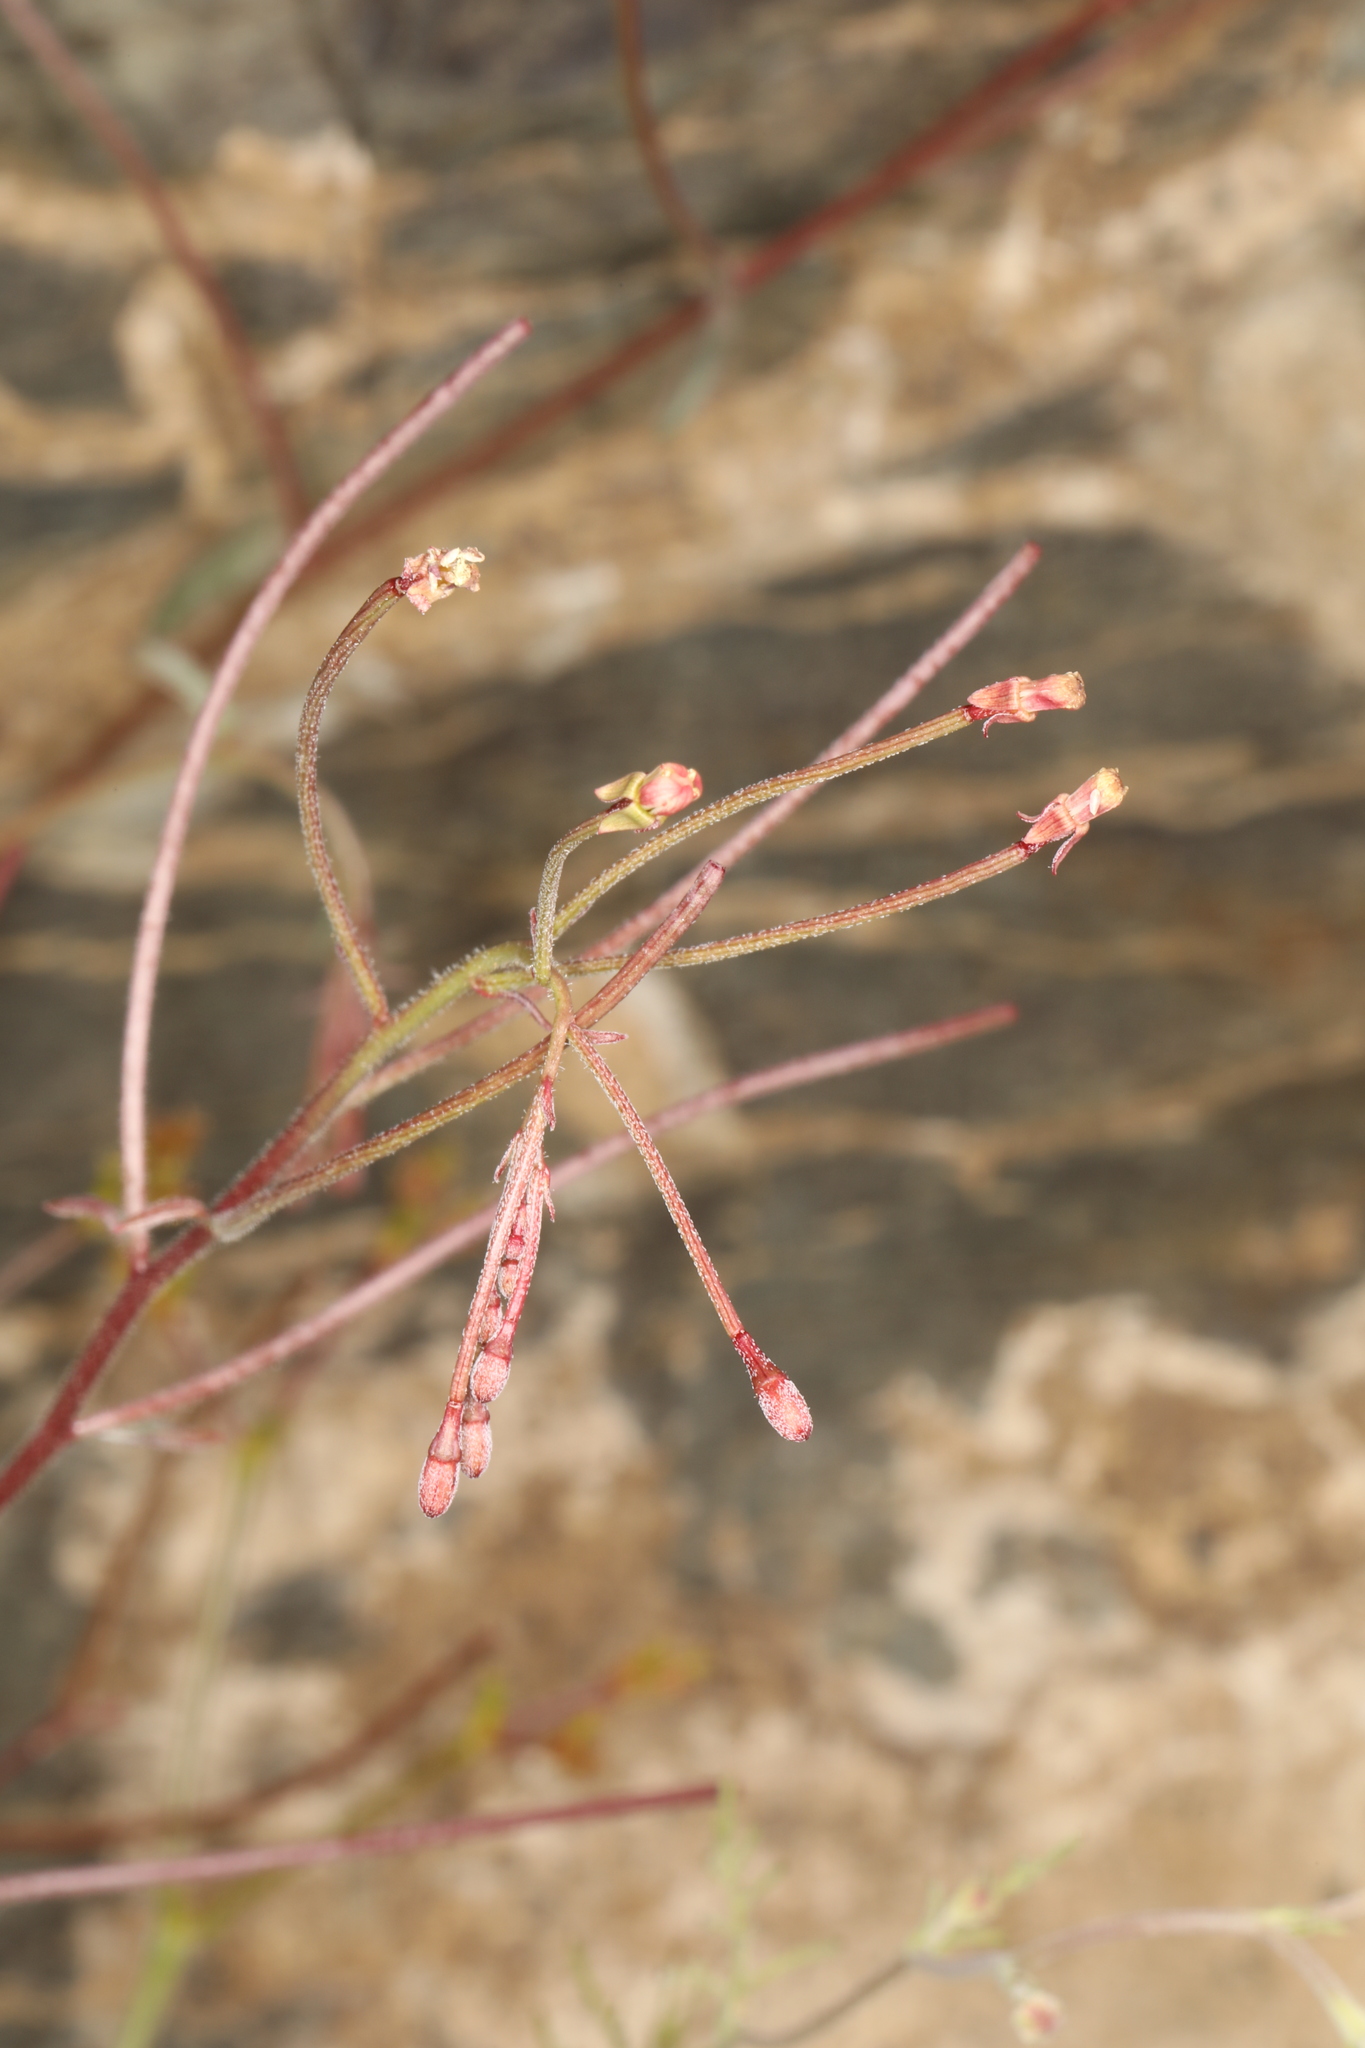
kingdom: Plantae
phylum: Tracheophyta
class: Magnoliopsida
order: Myrtales
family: Onagraceae
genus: Eremothera
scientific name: Eremothera chamaenerioides
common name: Longcapsule suncup
